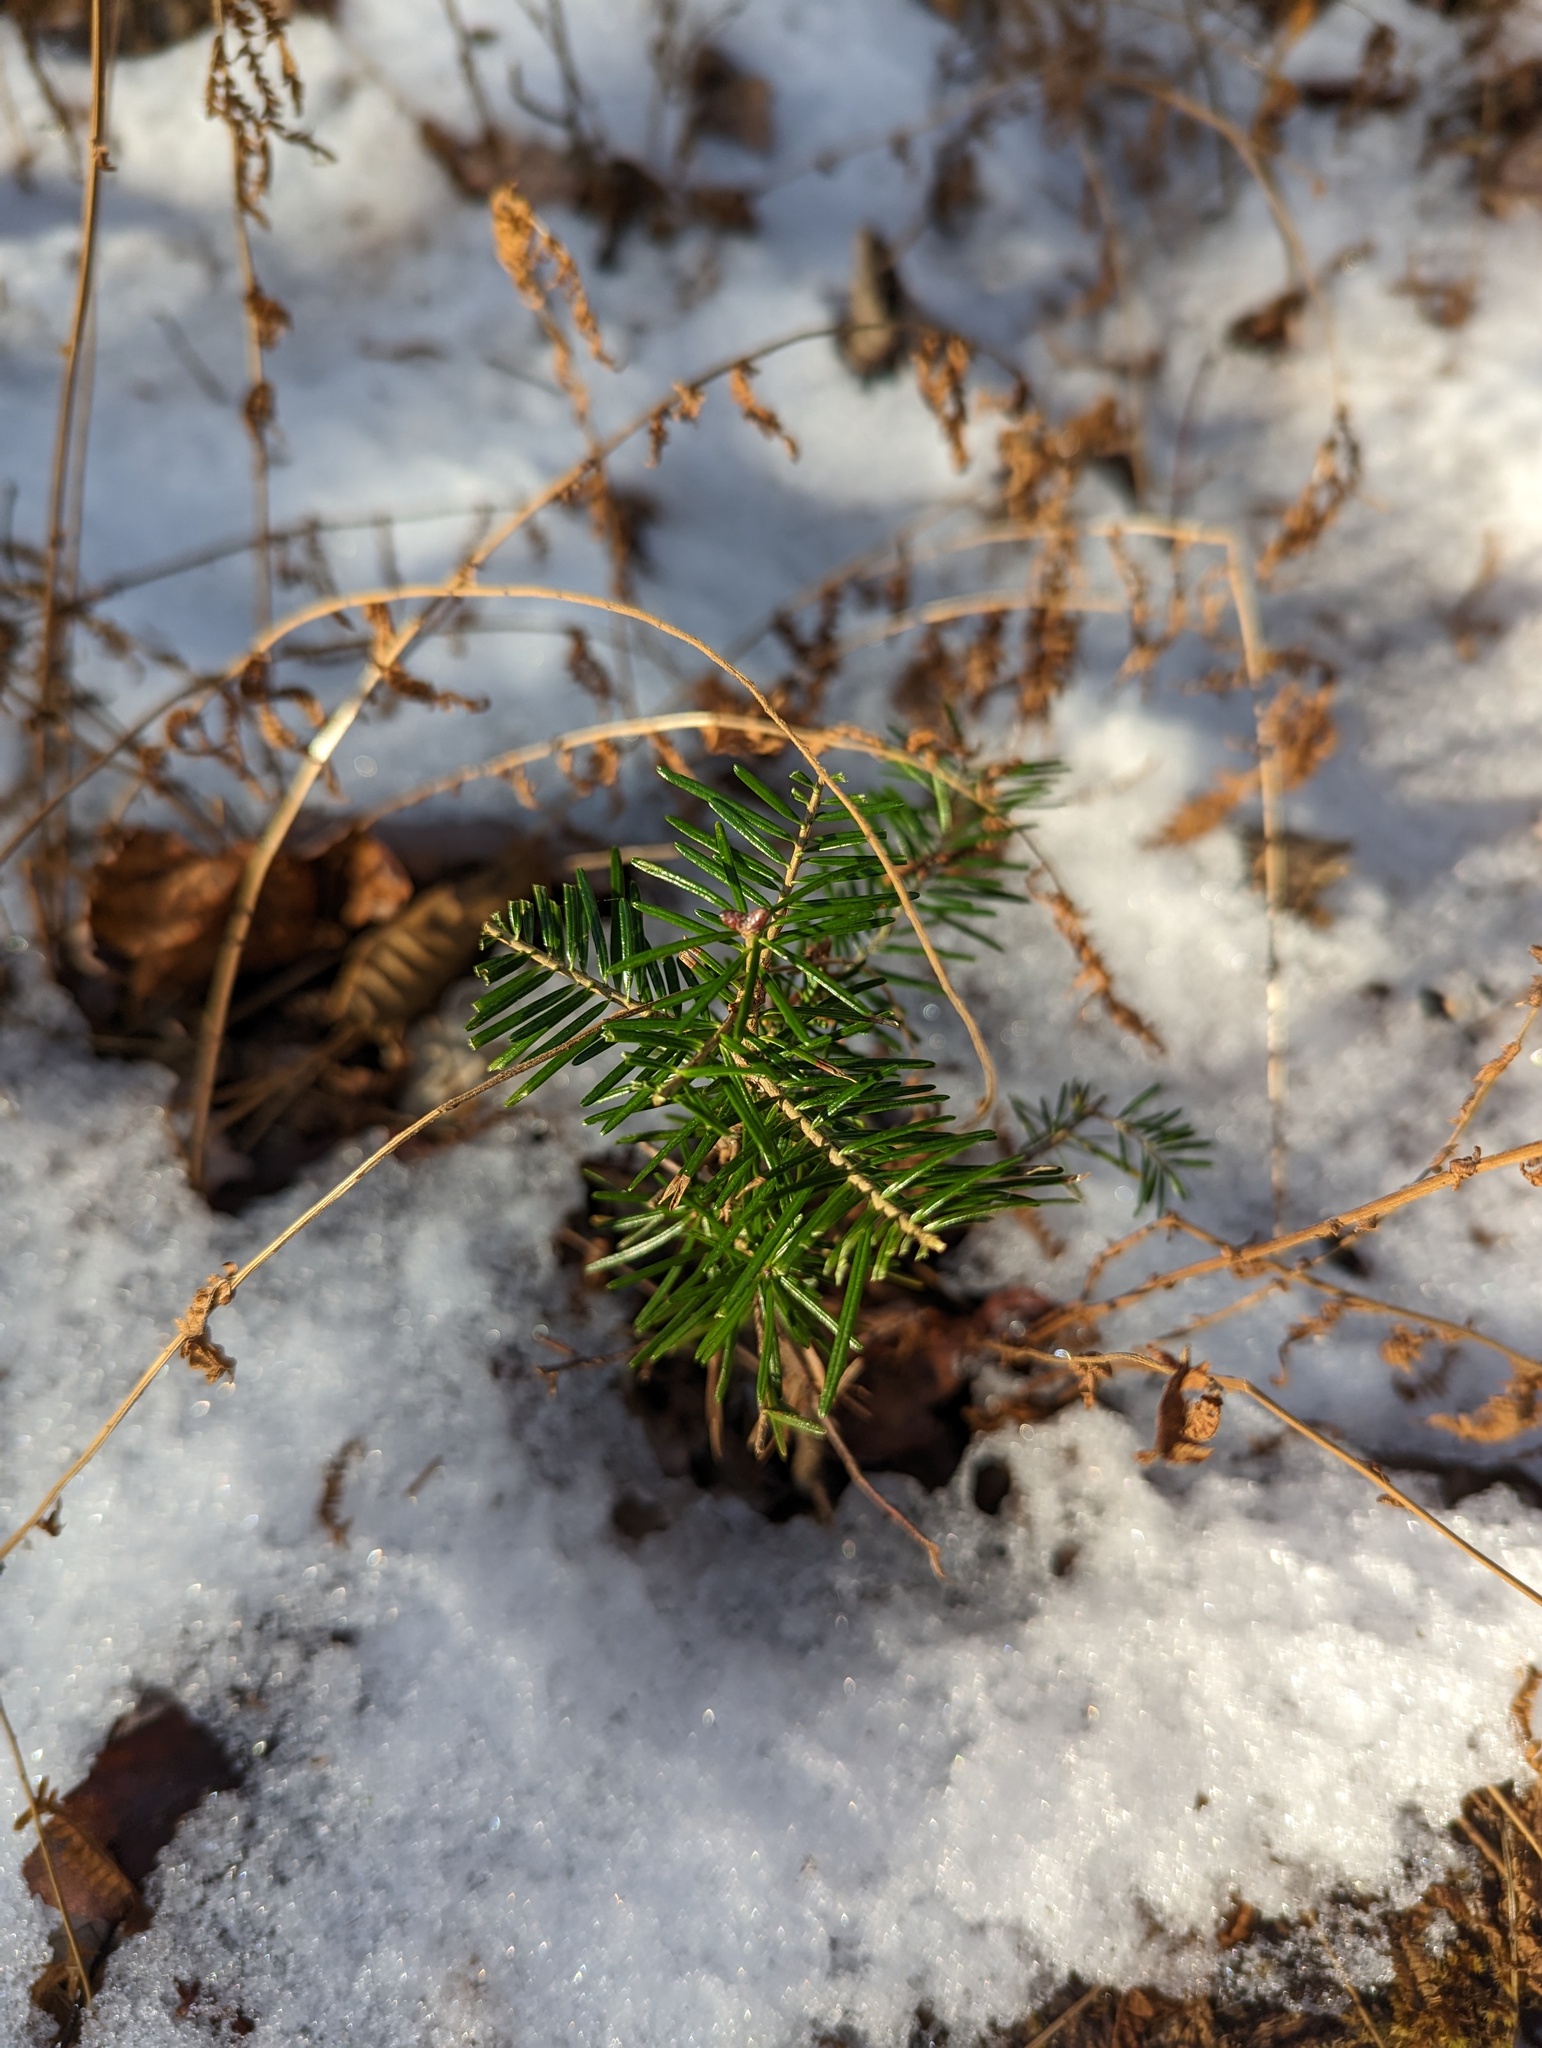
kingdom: Plantae
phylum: Tracheophyta
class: Pinopsida
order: Pinales
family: Pinaceae
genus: Abies
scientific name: Abies balsamea
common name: Balsam fir
